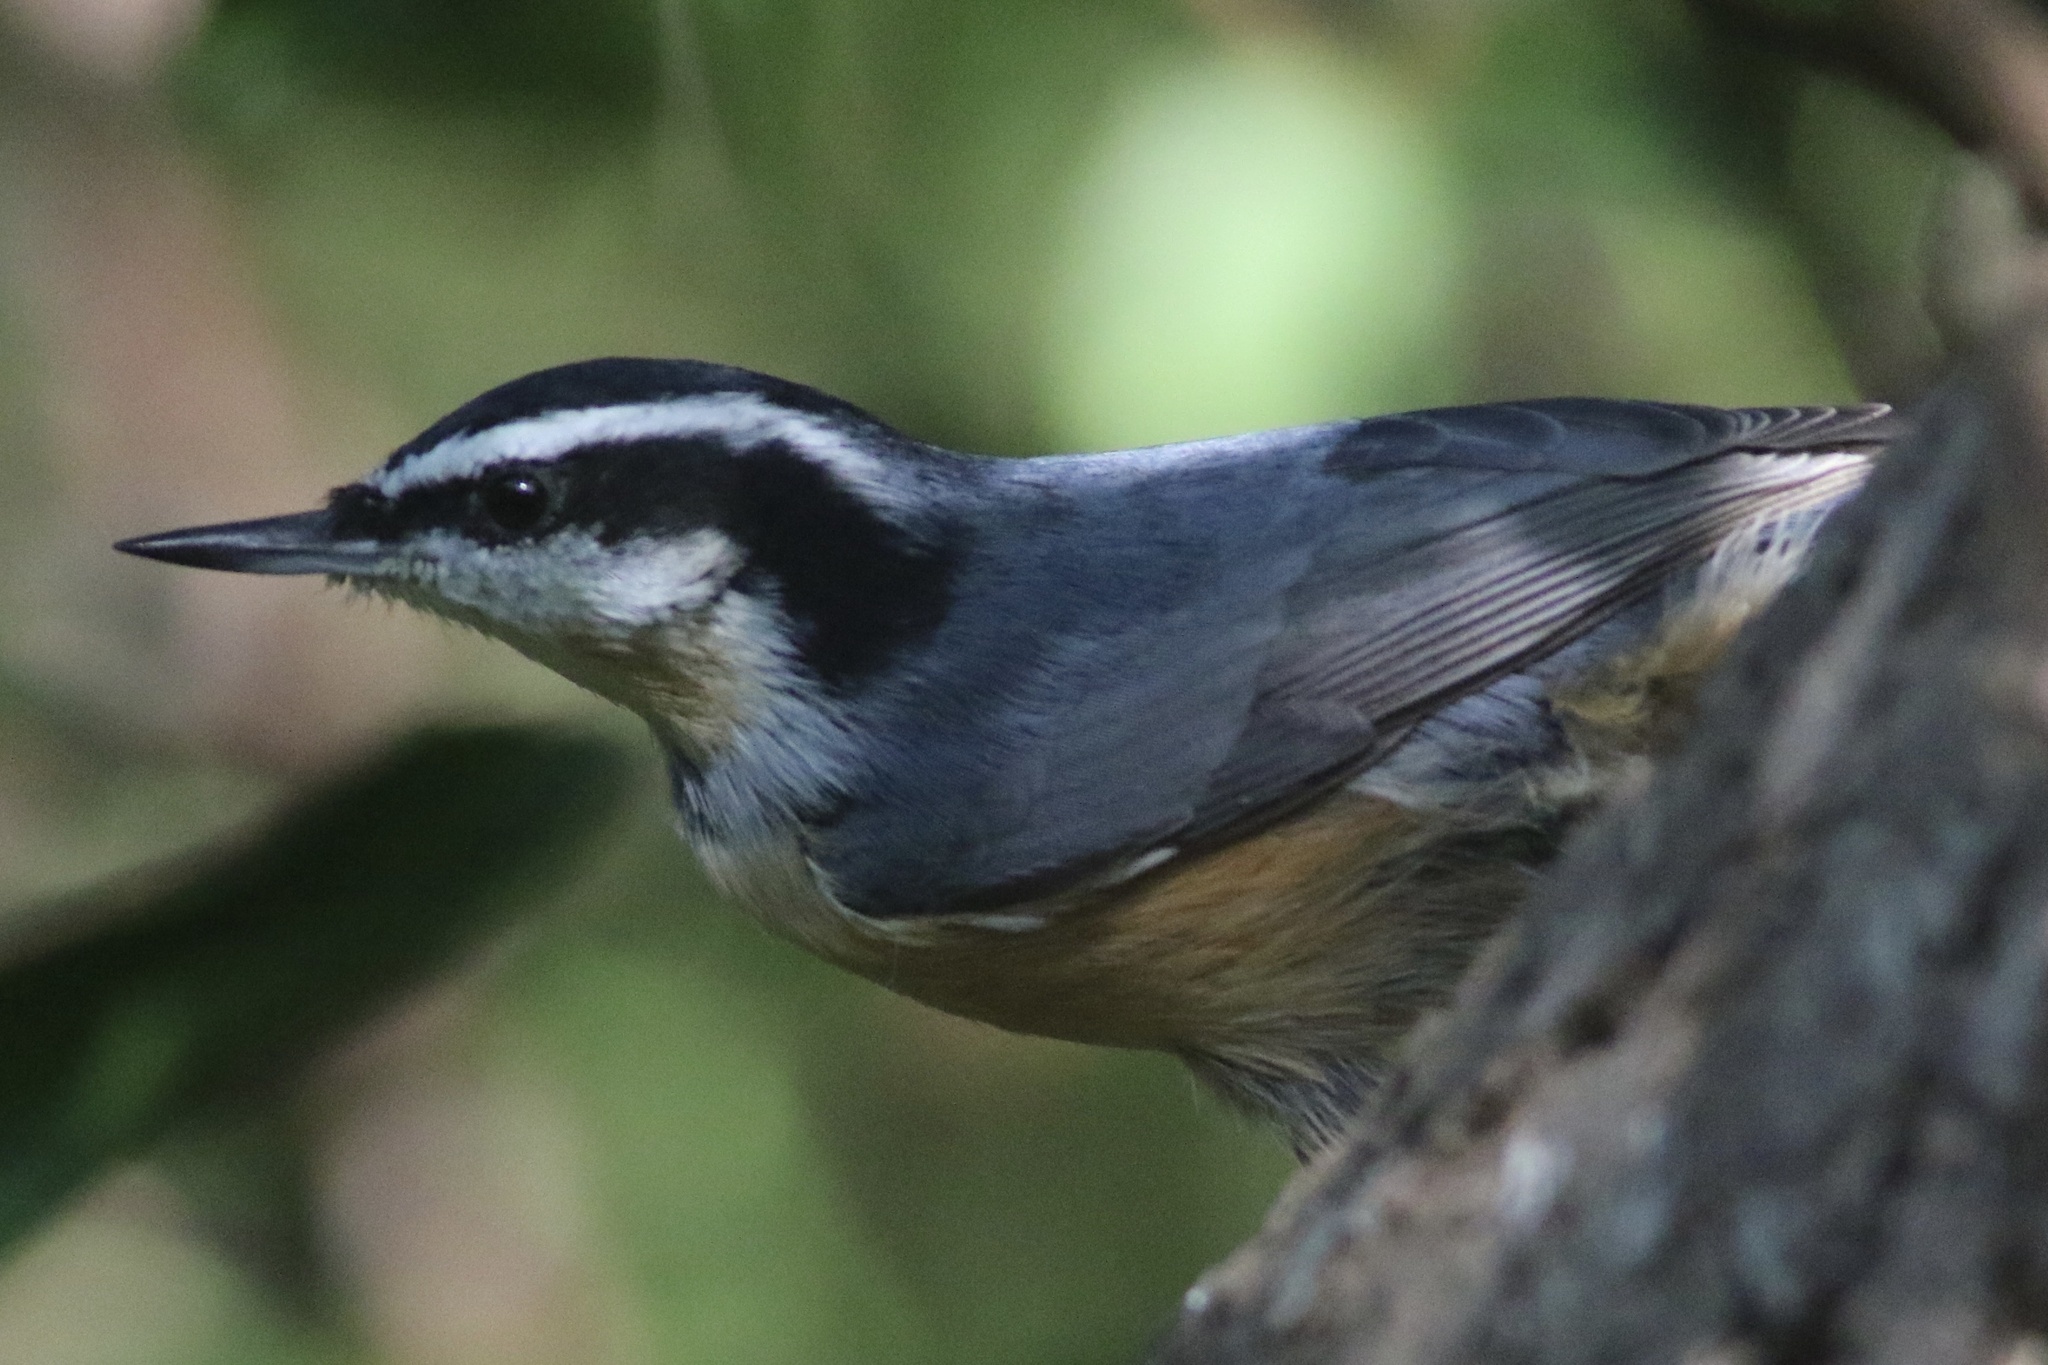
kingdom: Animalia
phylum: Chordata
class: Aves
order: Passeriformes
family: Sittidae
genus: Sitta
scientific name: Sitta canadensis
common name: Red-breasted nuthatch
